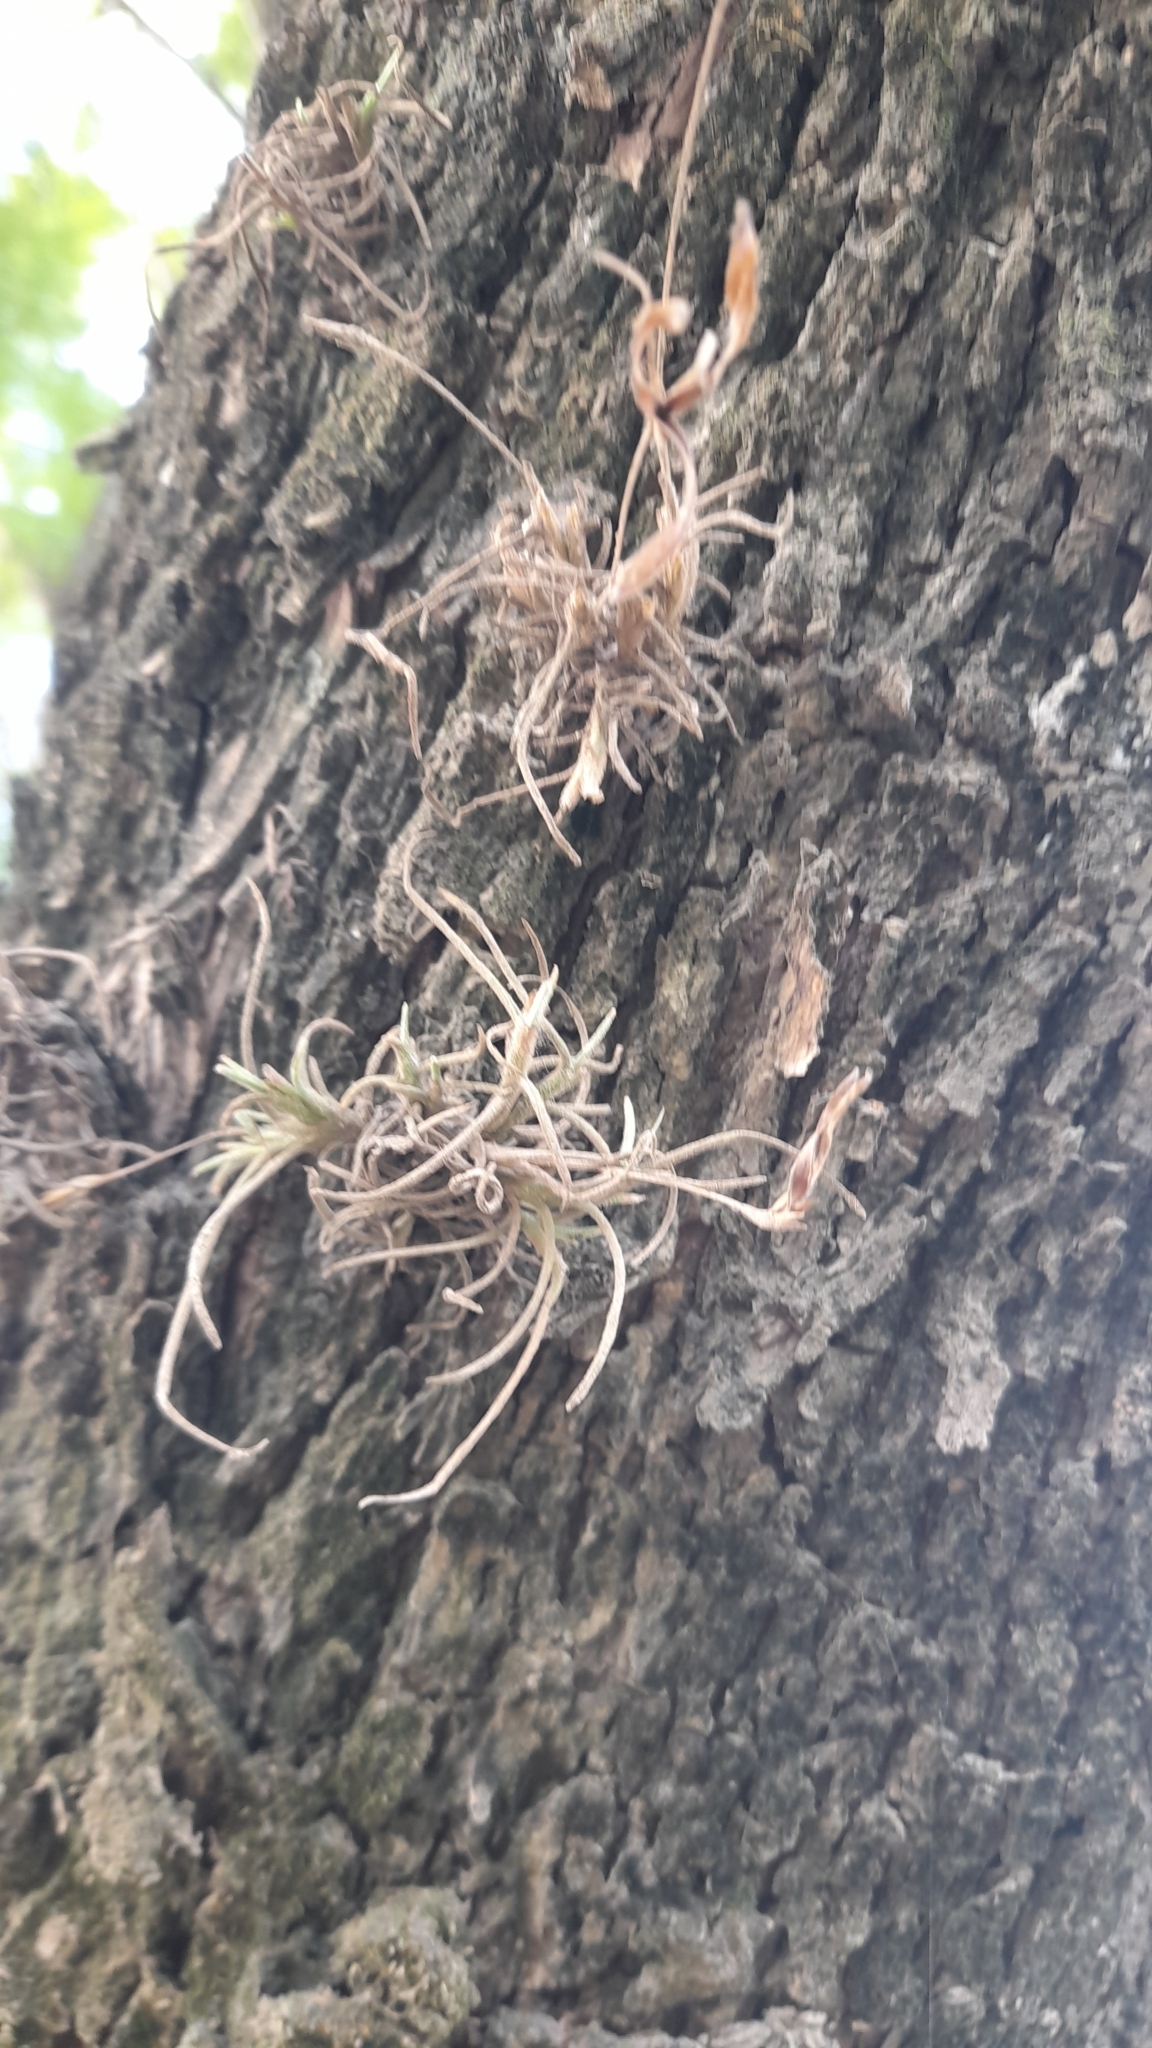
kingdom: Plantae
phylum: Tracheophyta
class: Liliopsida
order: Poales
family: Bromeliaceae
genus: Tillandsia
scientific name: Tillandsia recurvata
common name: Small ballmoss
